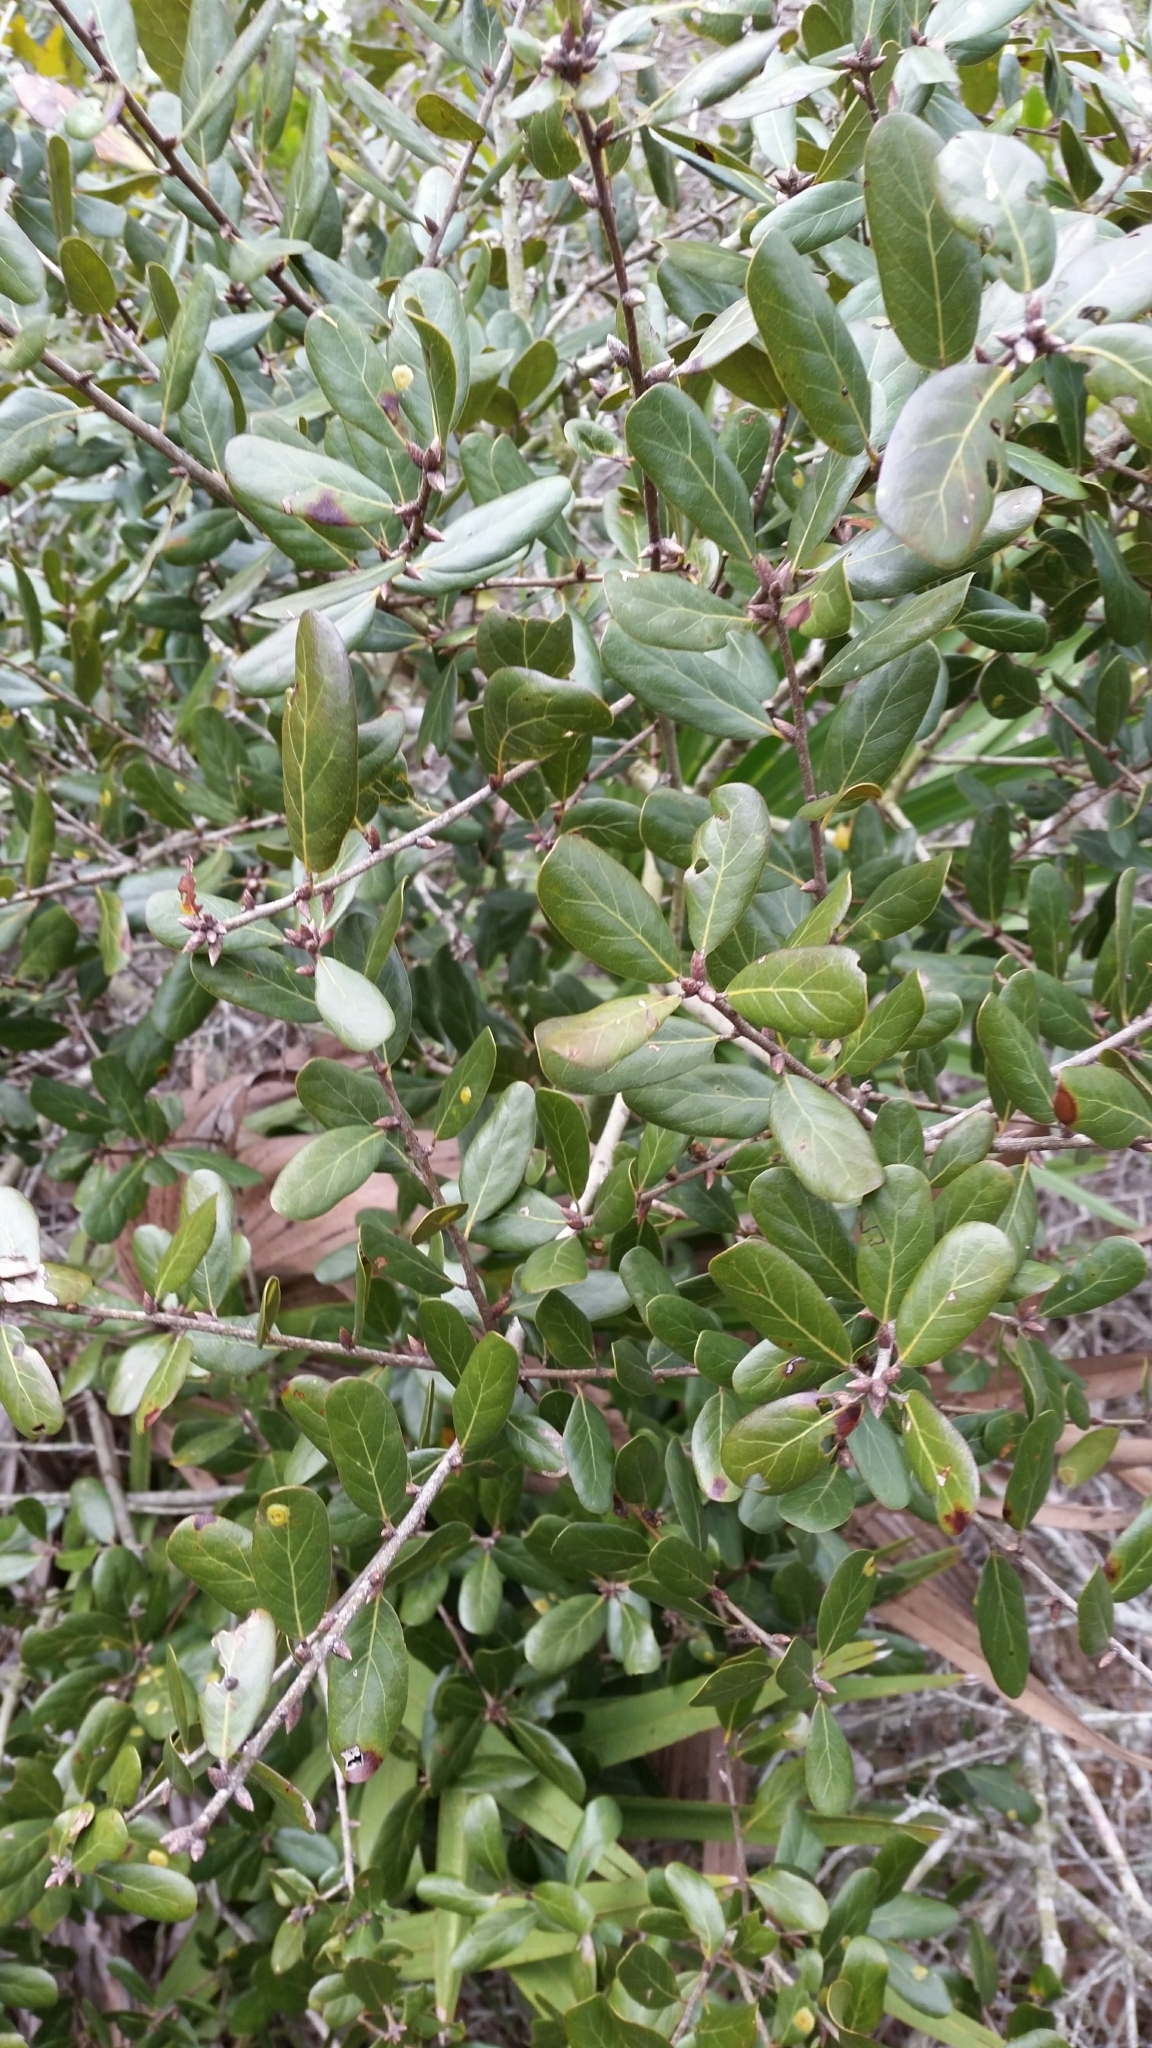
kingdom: Plantae
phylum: Tracheophyta
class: Magnoliopsida
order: Fagales
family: Fagaceae
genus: Quercus
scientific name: Quercus myrtifolia
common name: Myrtle oak
